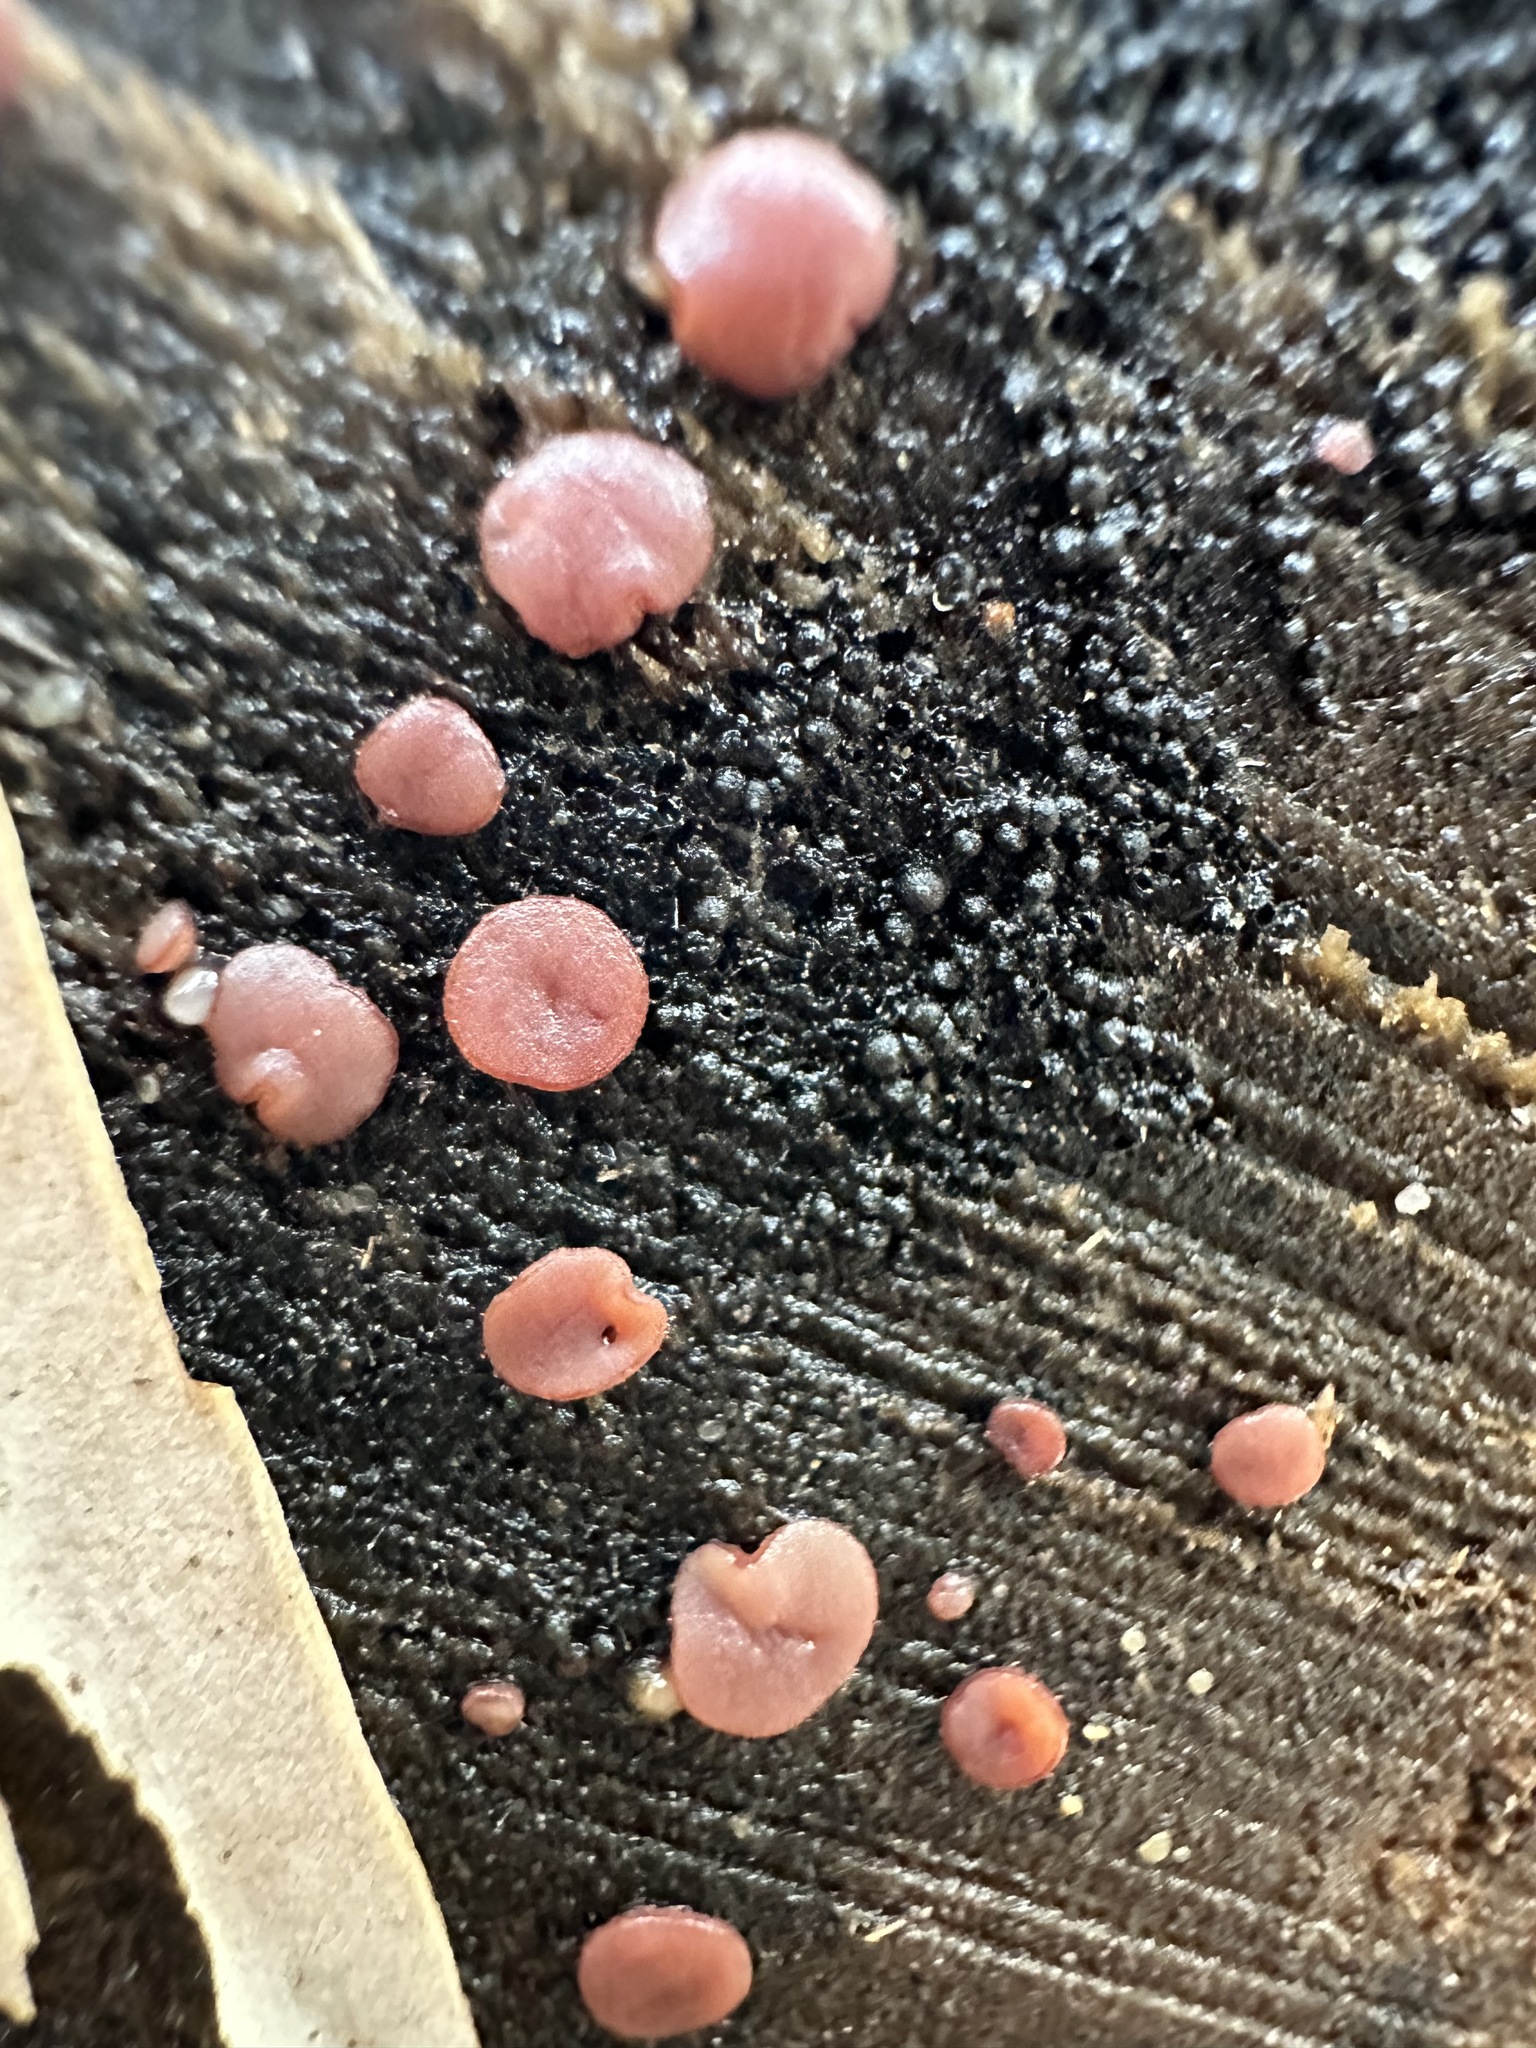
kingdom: Fungi
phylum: Ascomycota
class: Leotiomycetes
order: Helotiales
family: Gelatinodiscaceae
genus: Ascocoryne
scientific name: Ascocoryne sarcoides
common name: Purple jellydisc
